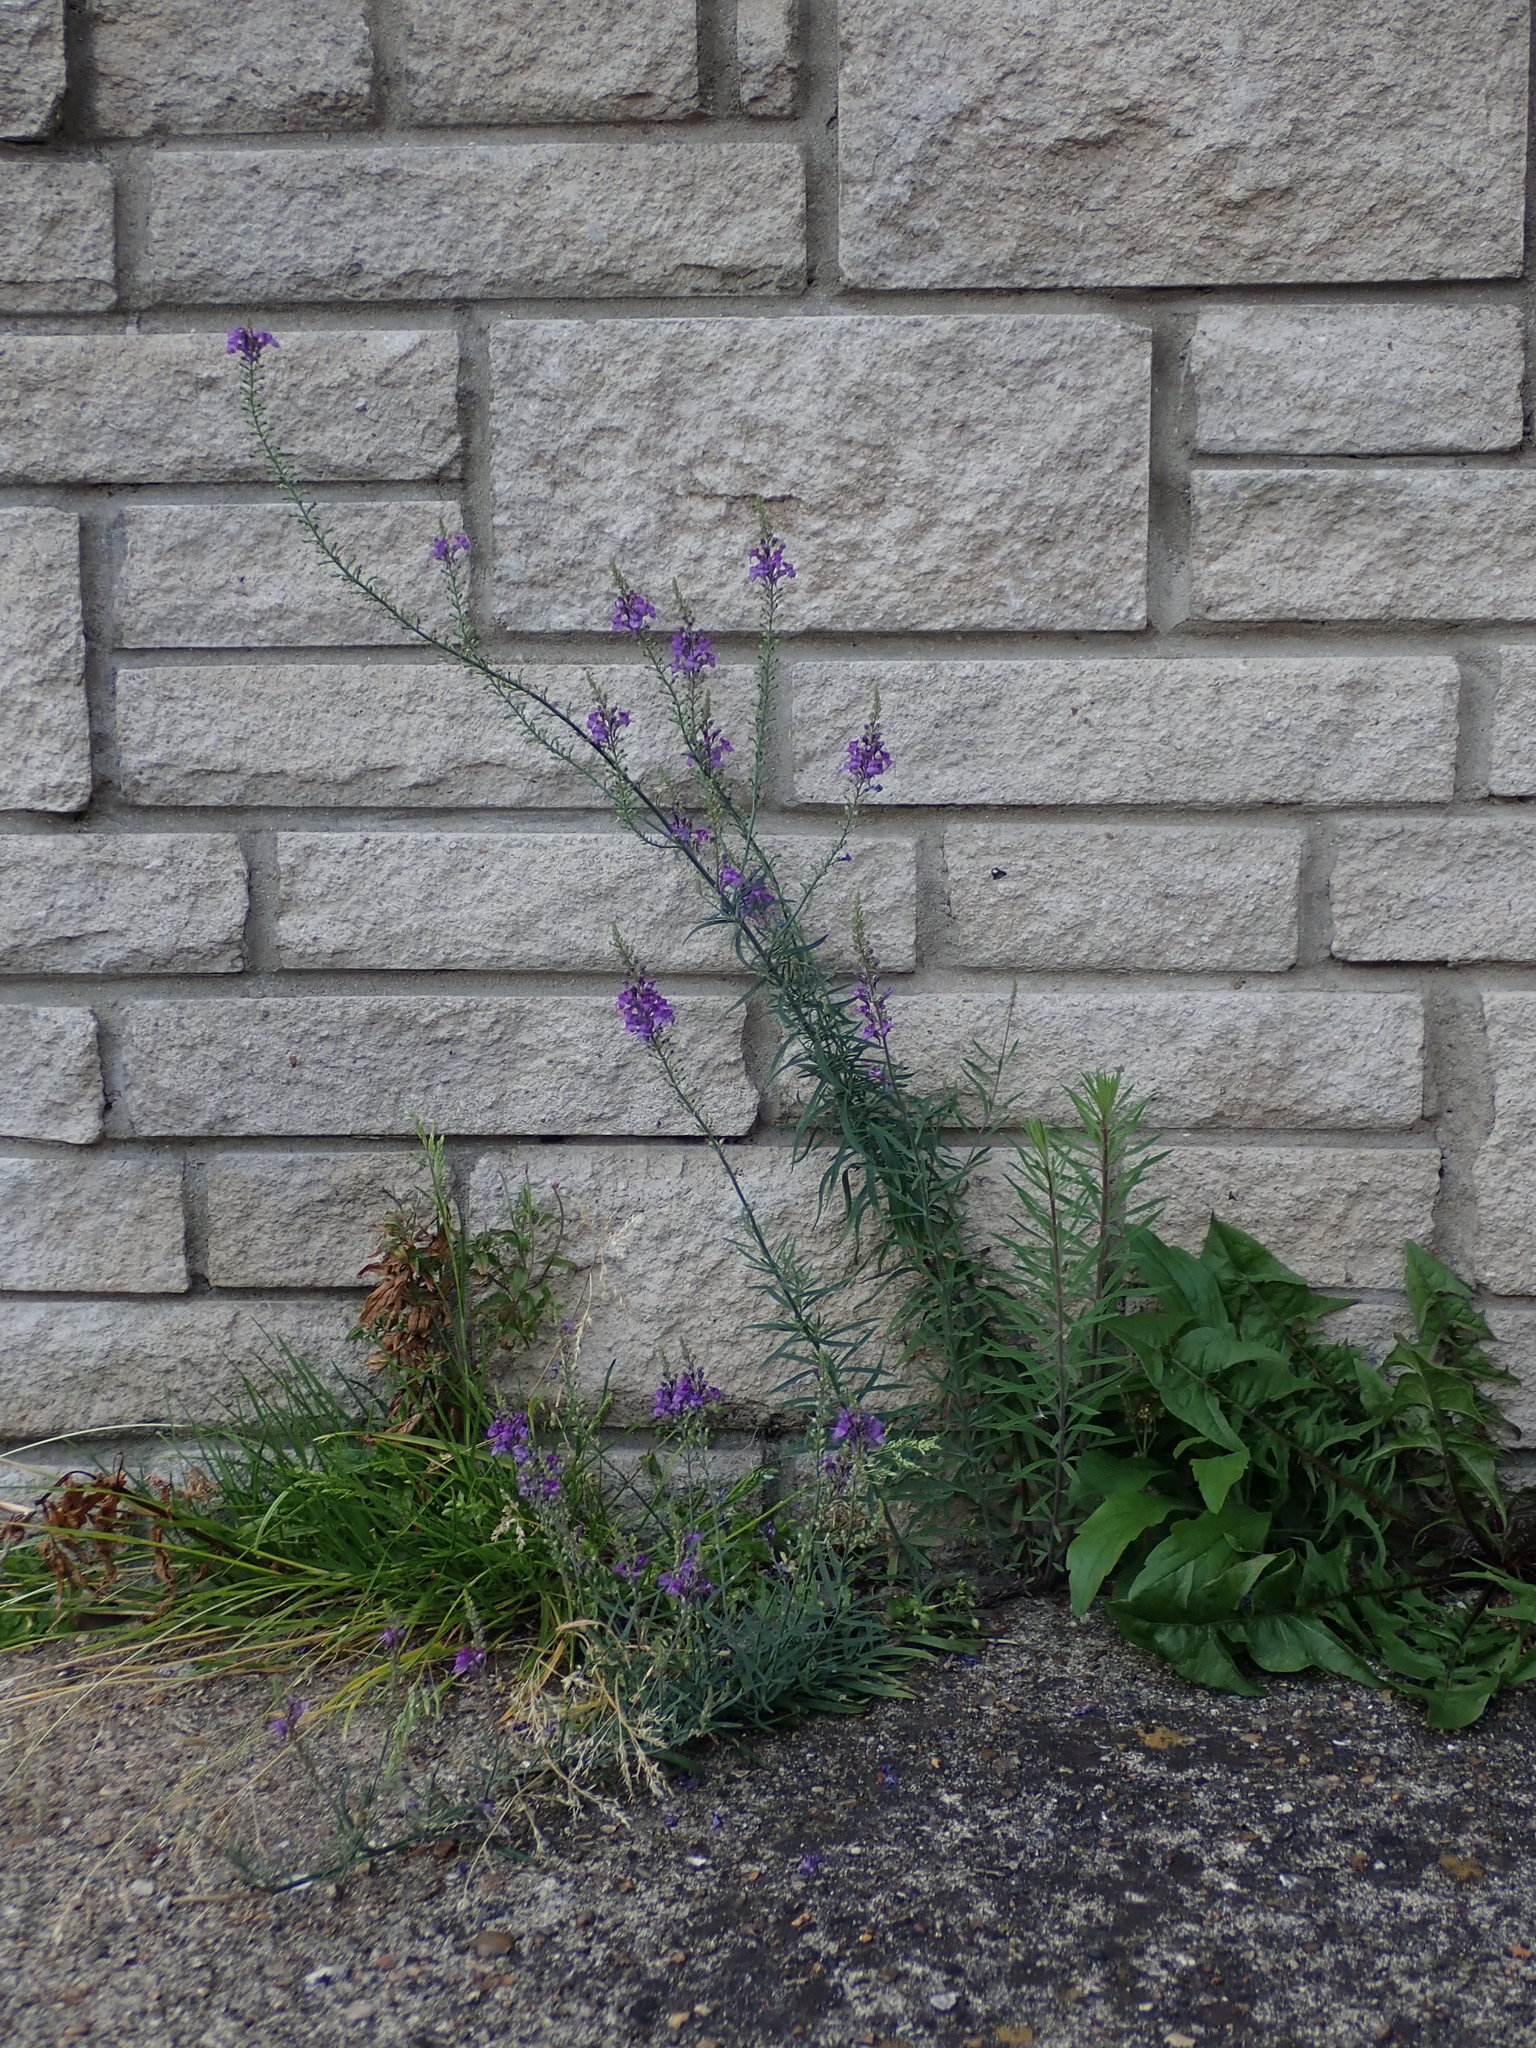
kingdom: Plantae
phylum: Tracheophyta
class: Magnoliopsida
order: Lamiales
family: Plantaginaceae
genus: Linaria
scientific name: Linaria purpurea
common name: Purple toadflax
